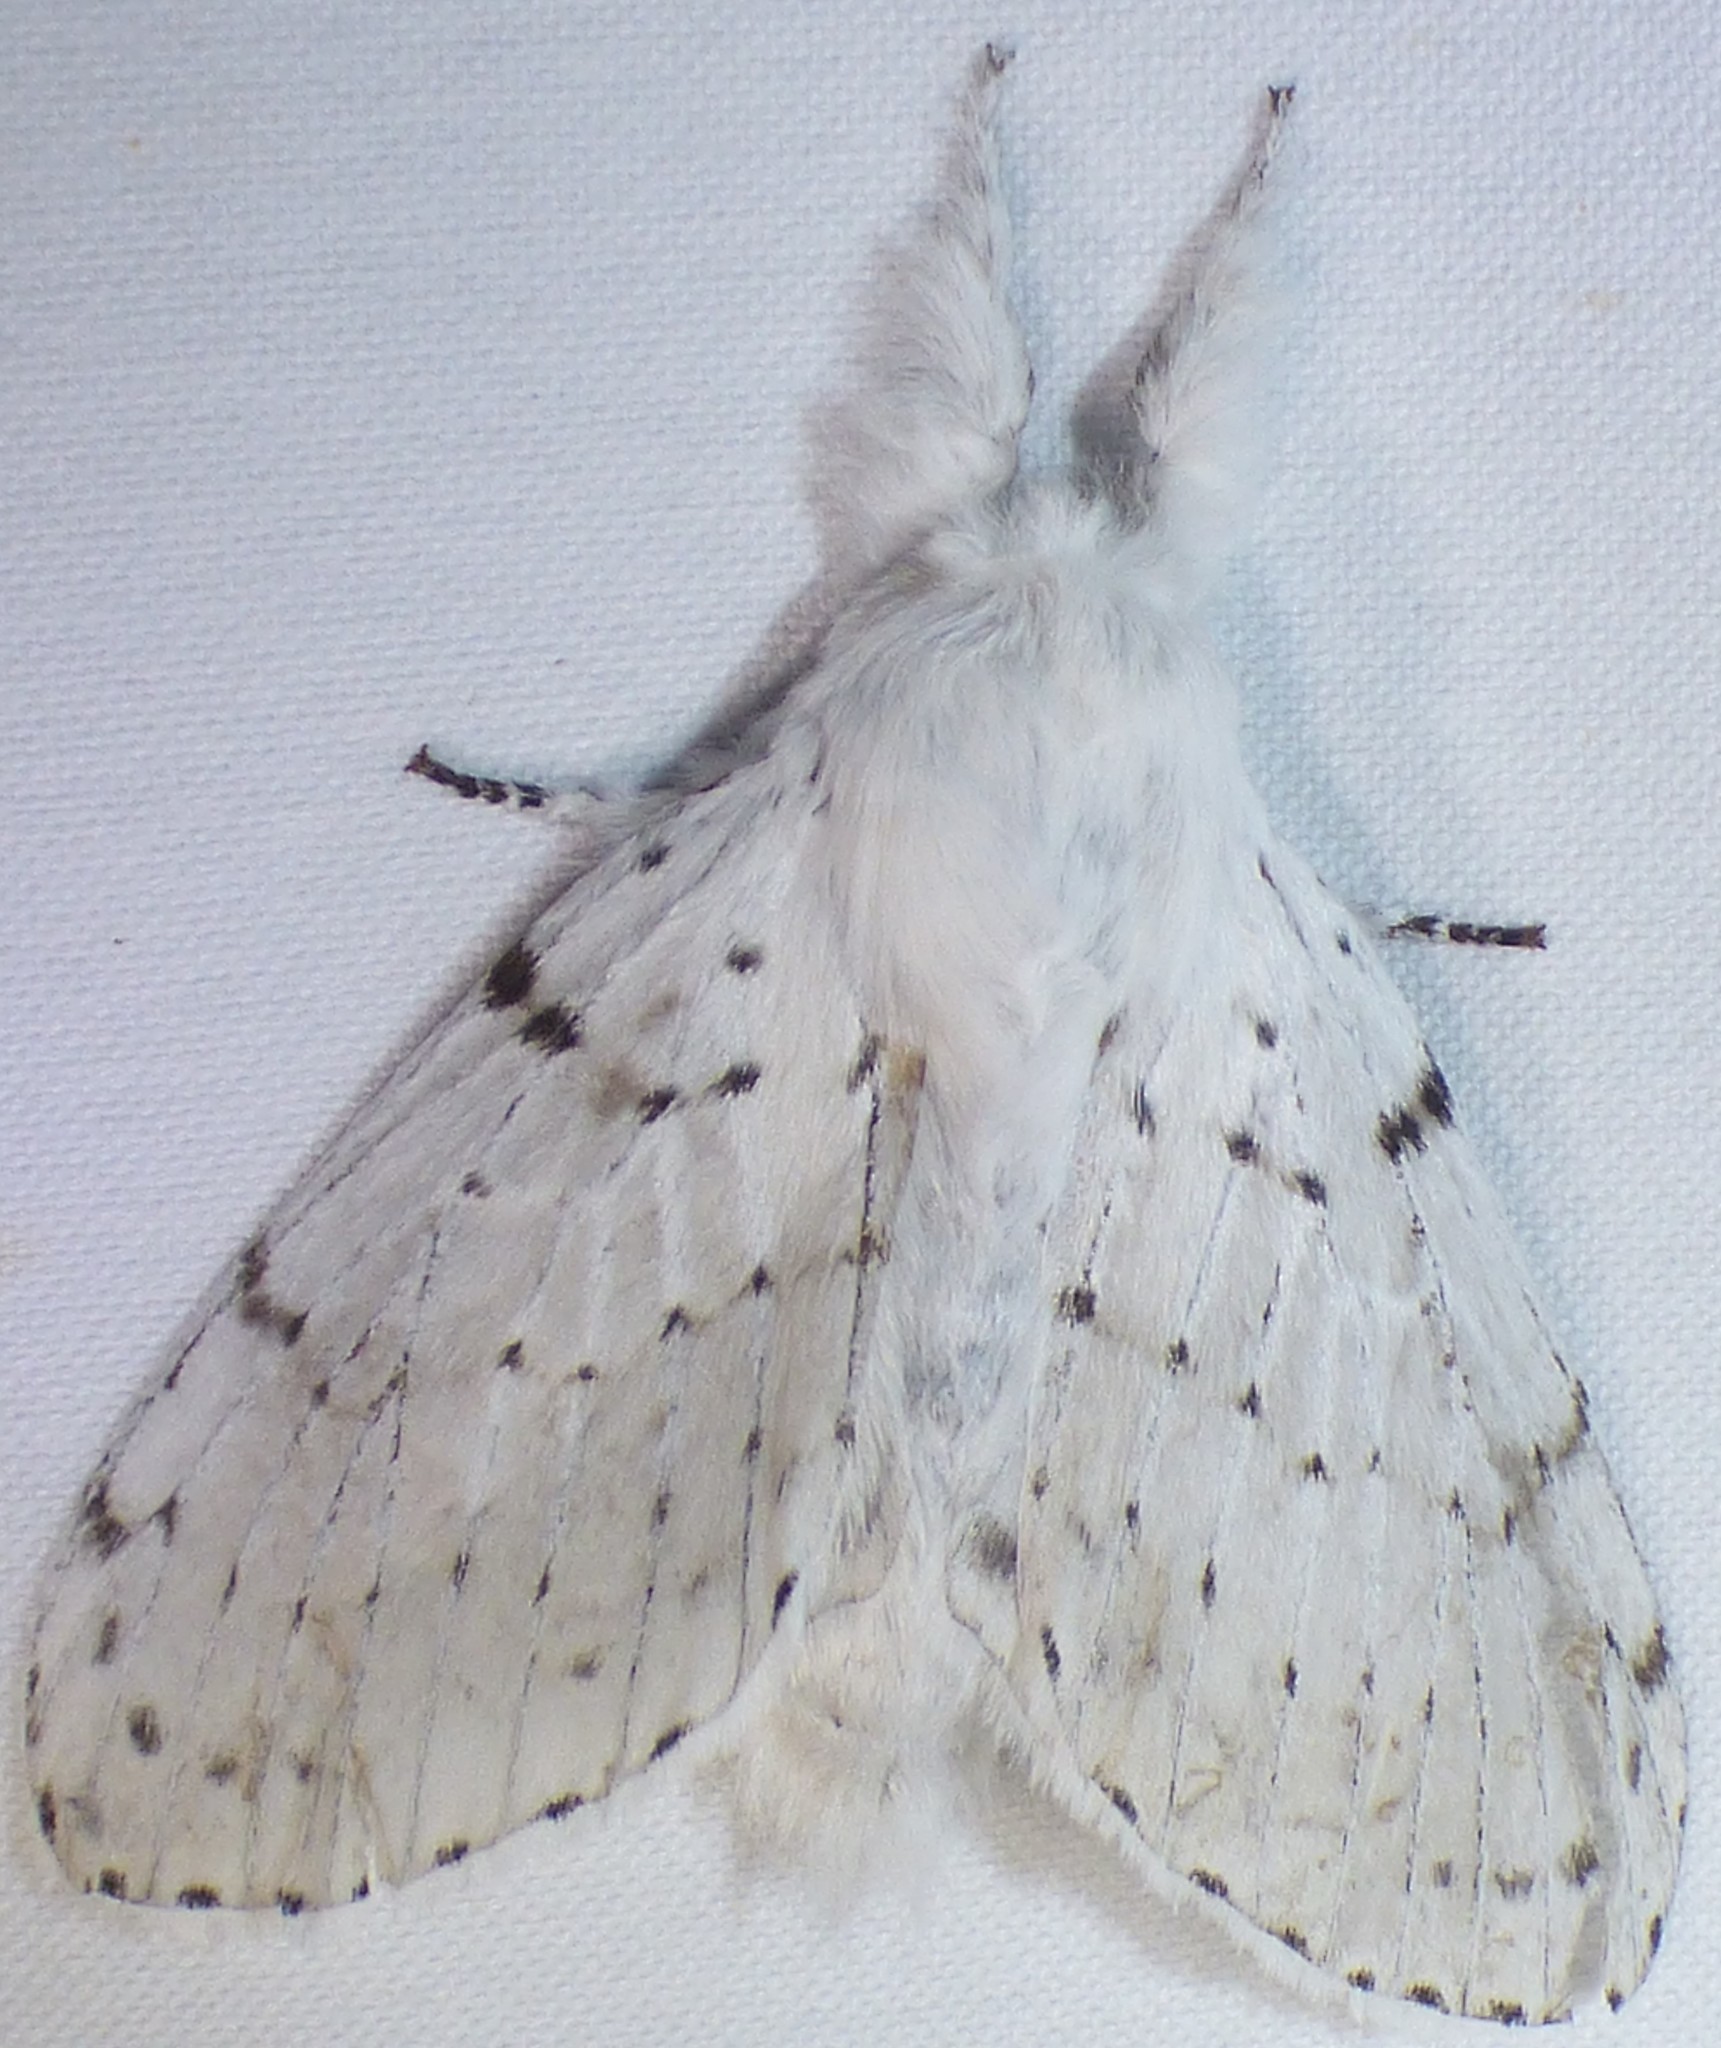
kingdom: Animalia
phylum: Arthropoda
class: Insecta
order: Lepidoptera
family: Lasiocampidae
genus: Artace
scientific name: Artace cribrarius
